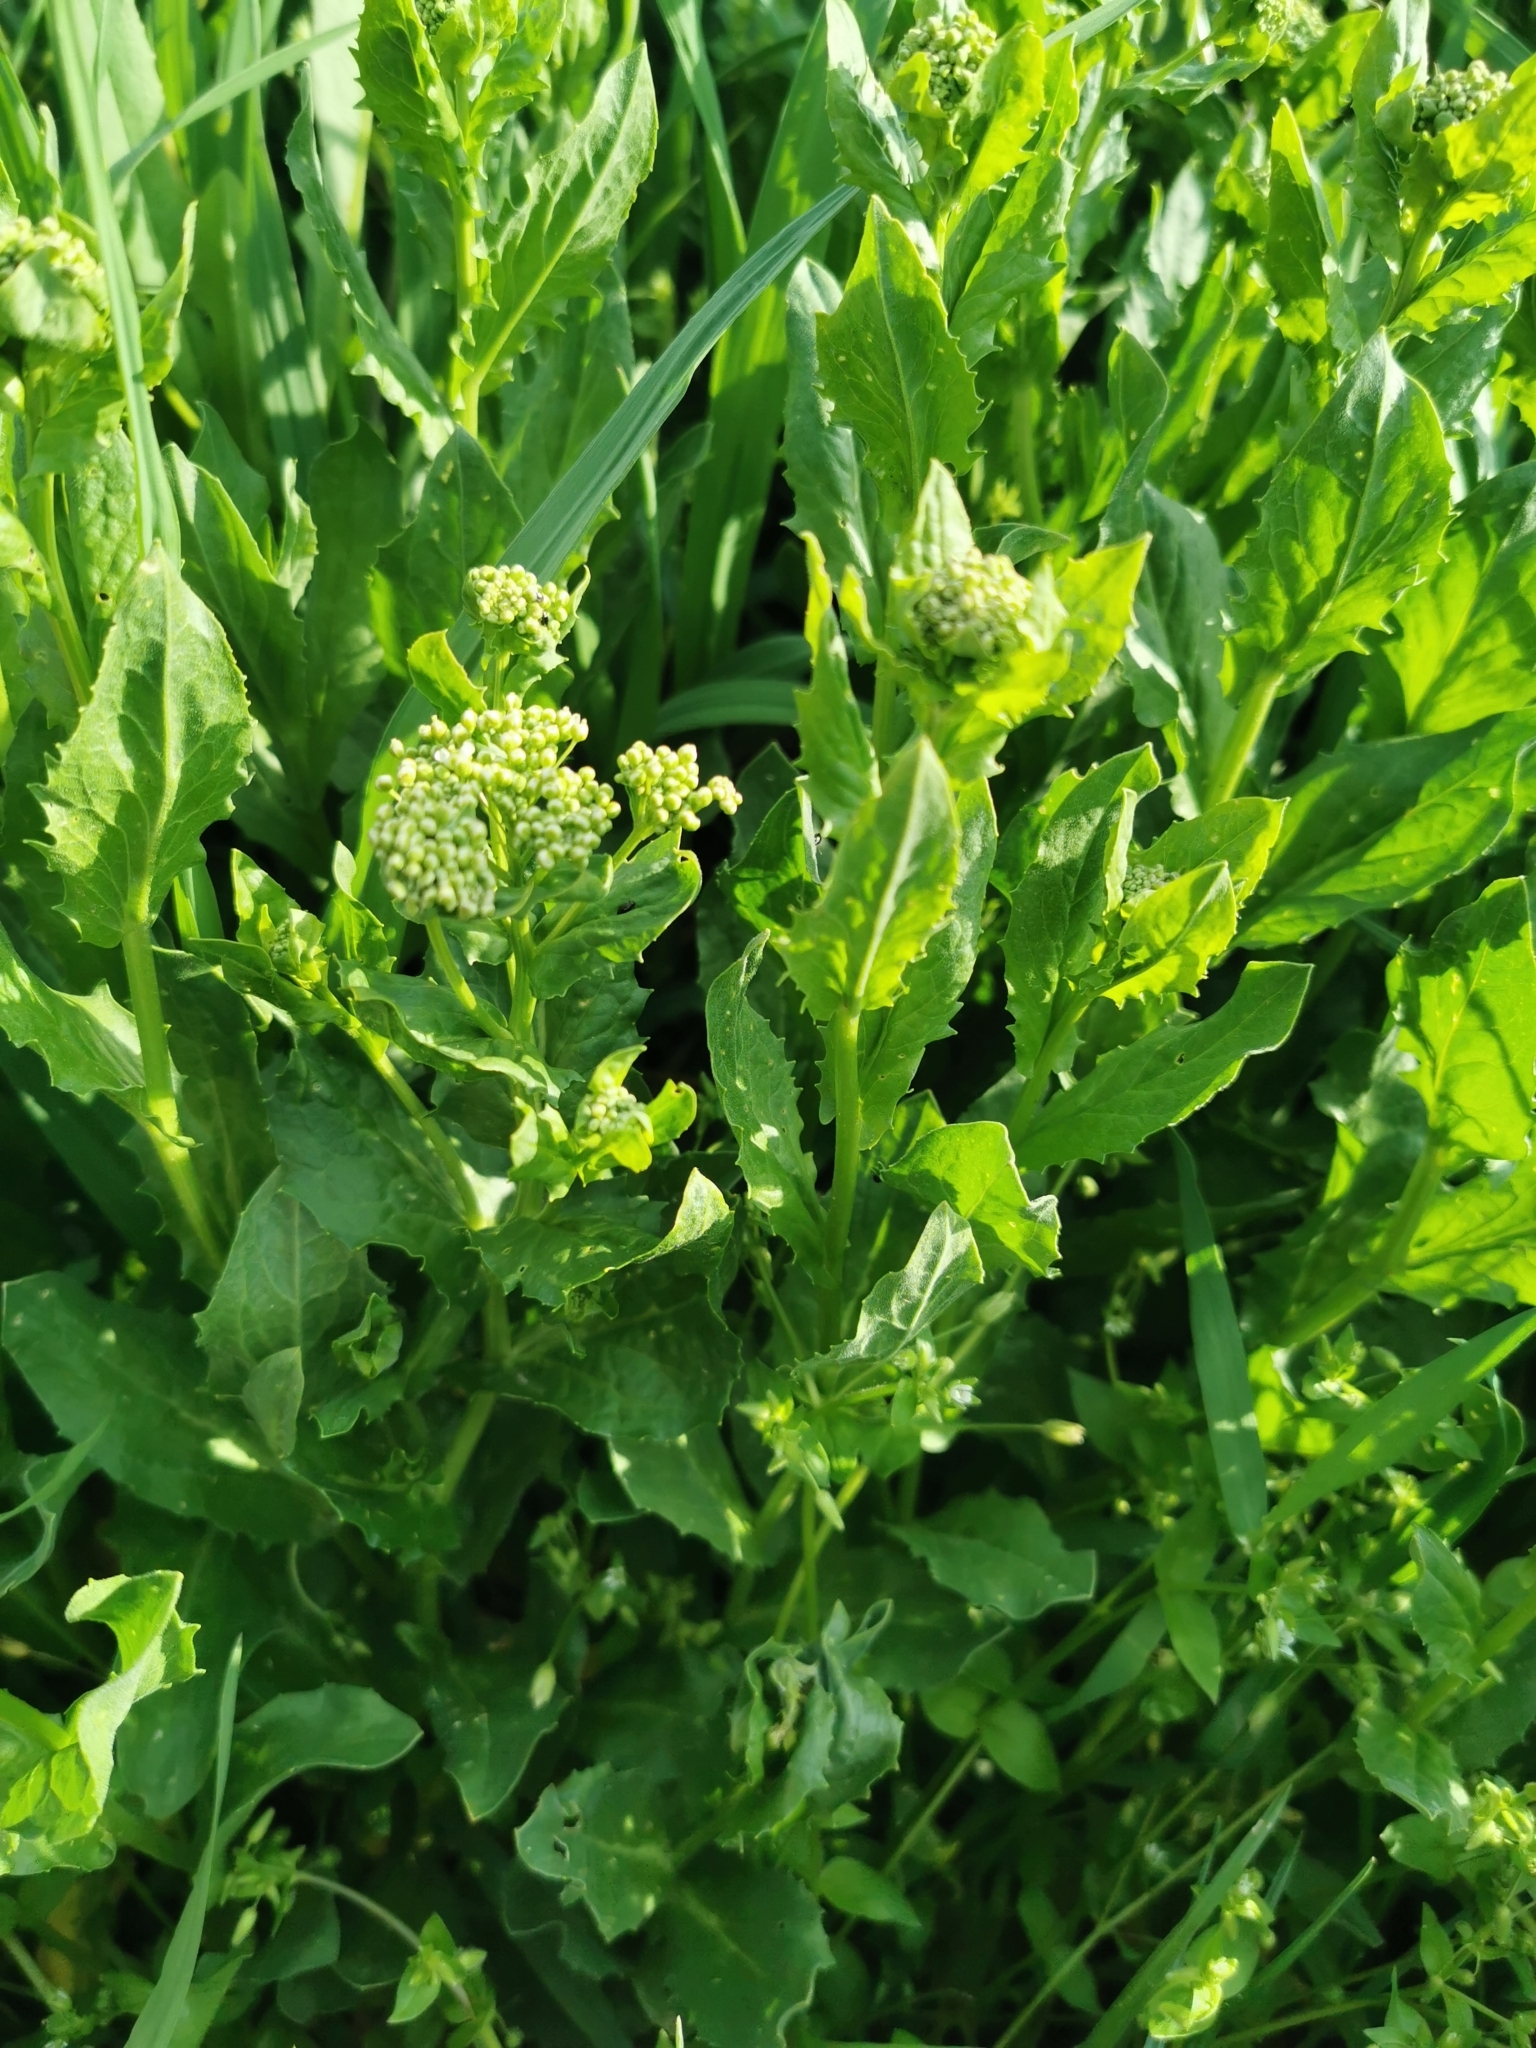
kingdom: Plantae
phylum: Tracheophyta
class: Magnoliopsida
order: Brassicales
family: Brassicaceae
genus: Lepidium
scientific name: Lepidium draba
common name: Hoary cress
